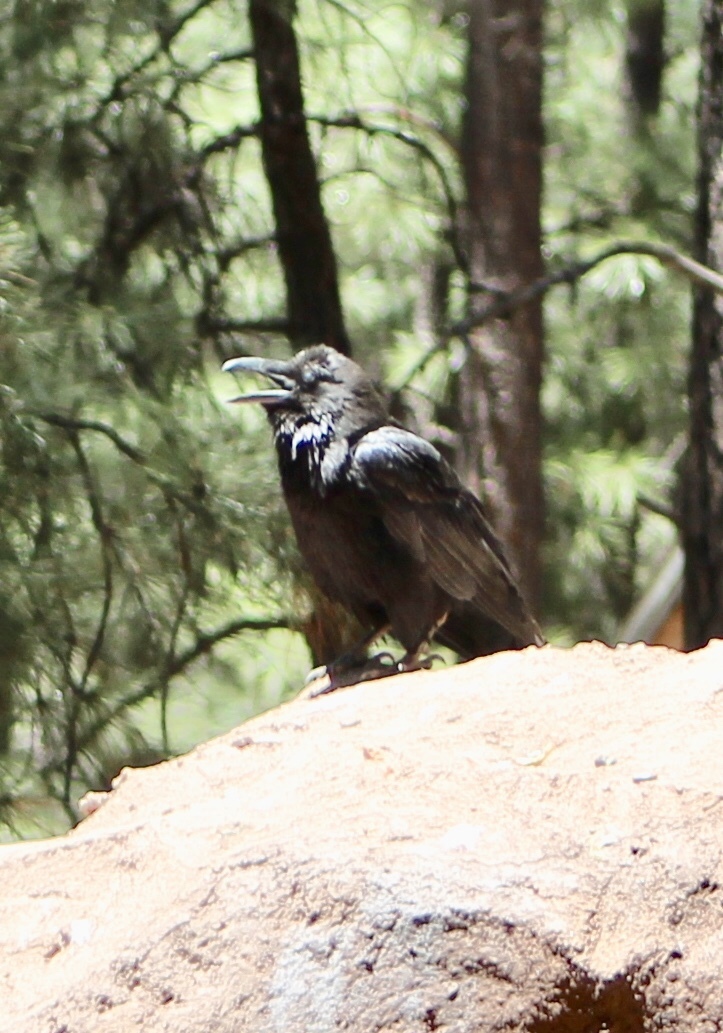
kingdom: Animalia
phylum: Chordata
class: Aves
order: Passeriformes
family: Corvidae
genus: Corvus
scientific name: Corvus corax
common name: Common raven
